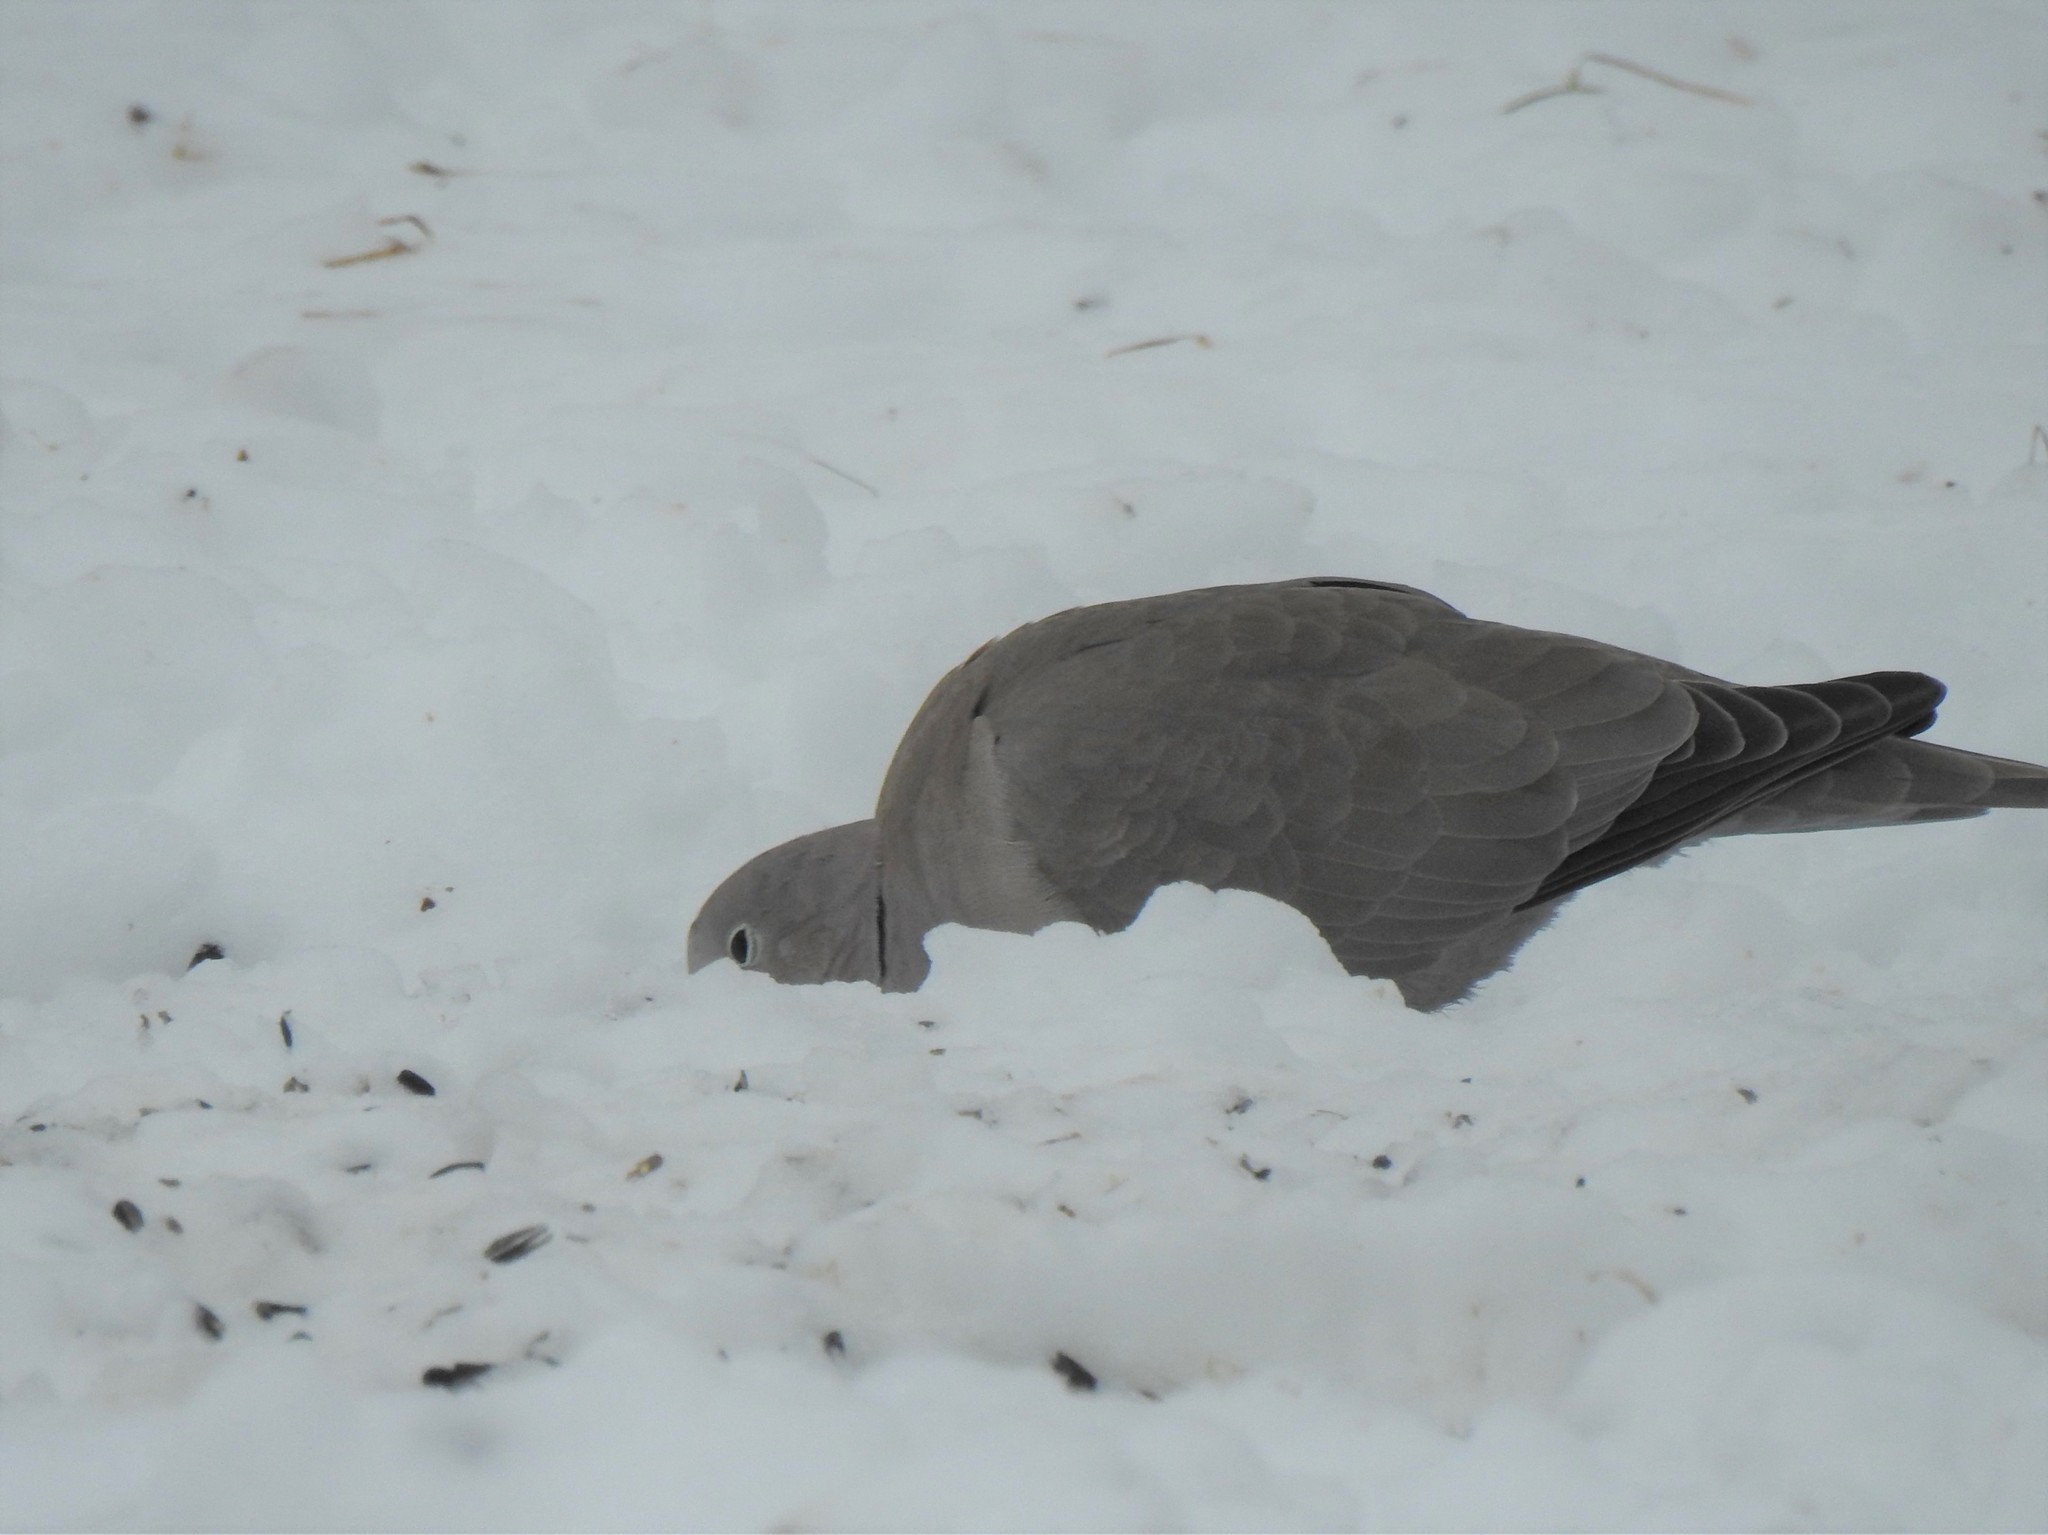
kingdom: Animalia
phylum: Chordata
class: Aves
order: Columbiformes
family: Columbidae
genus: Streptopelia
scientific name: Streptopelia decaocto
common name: Eurasian collared dove
